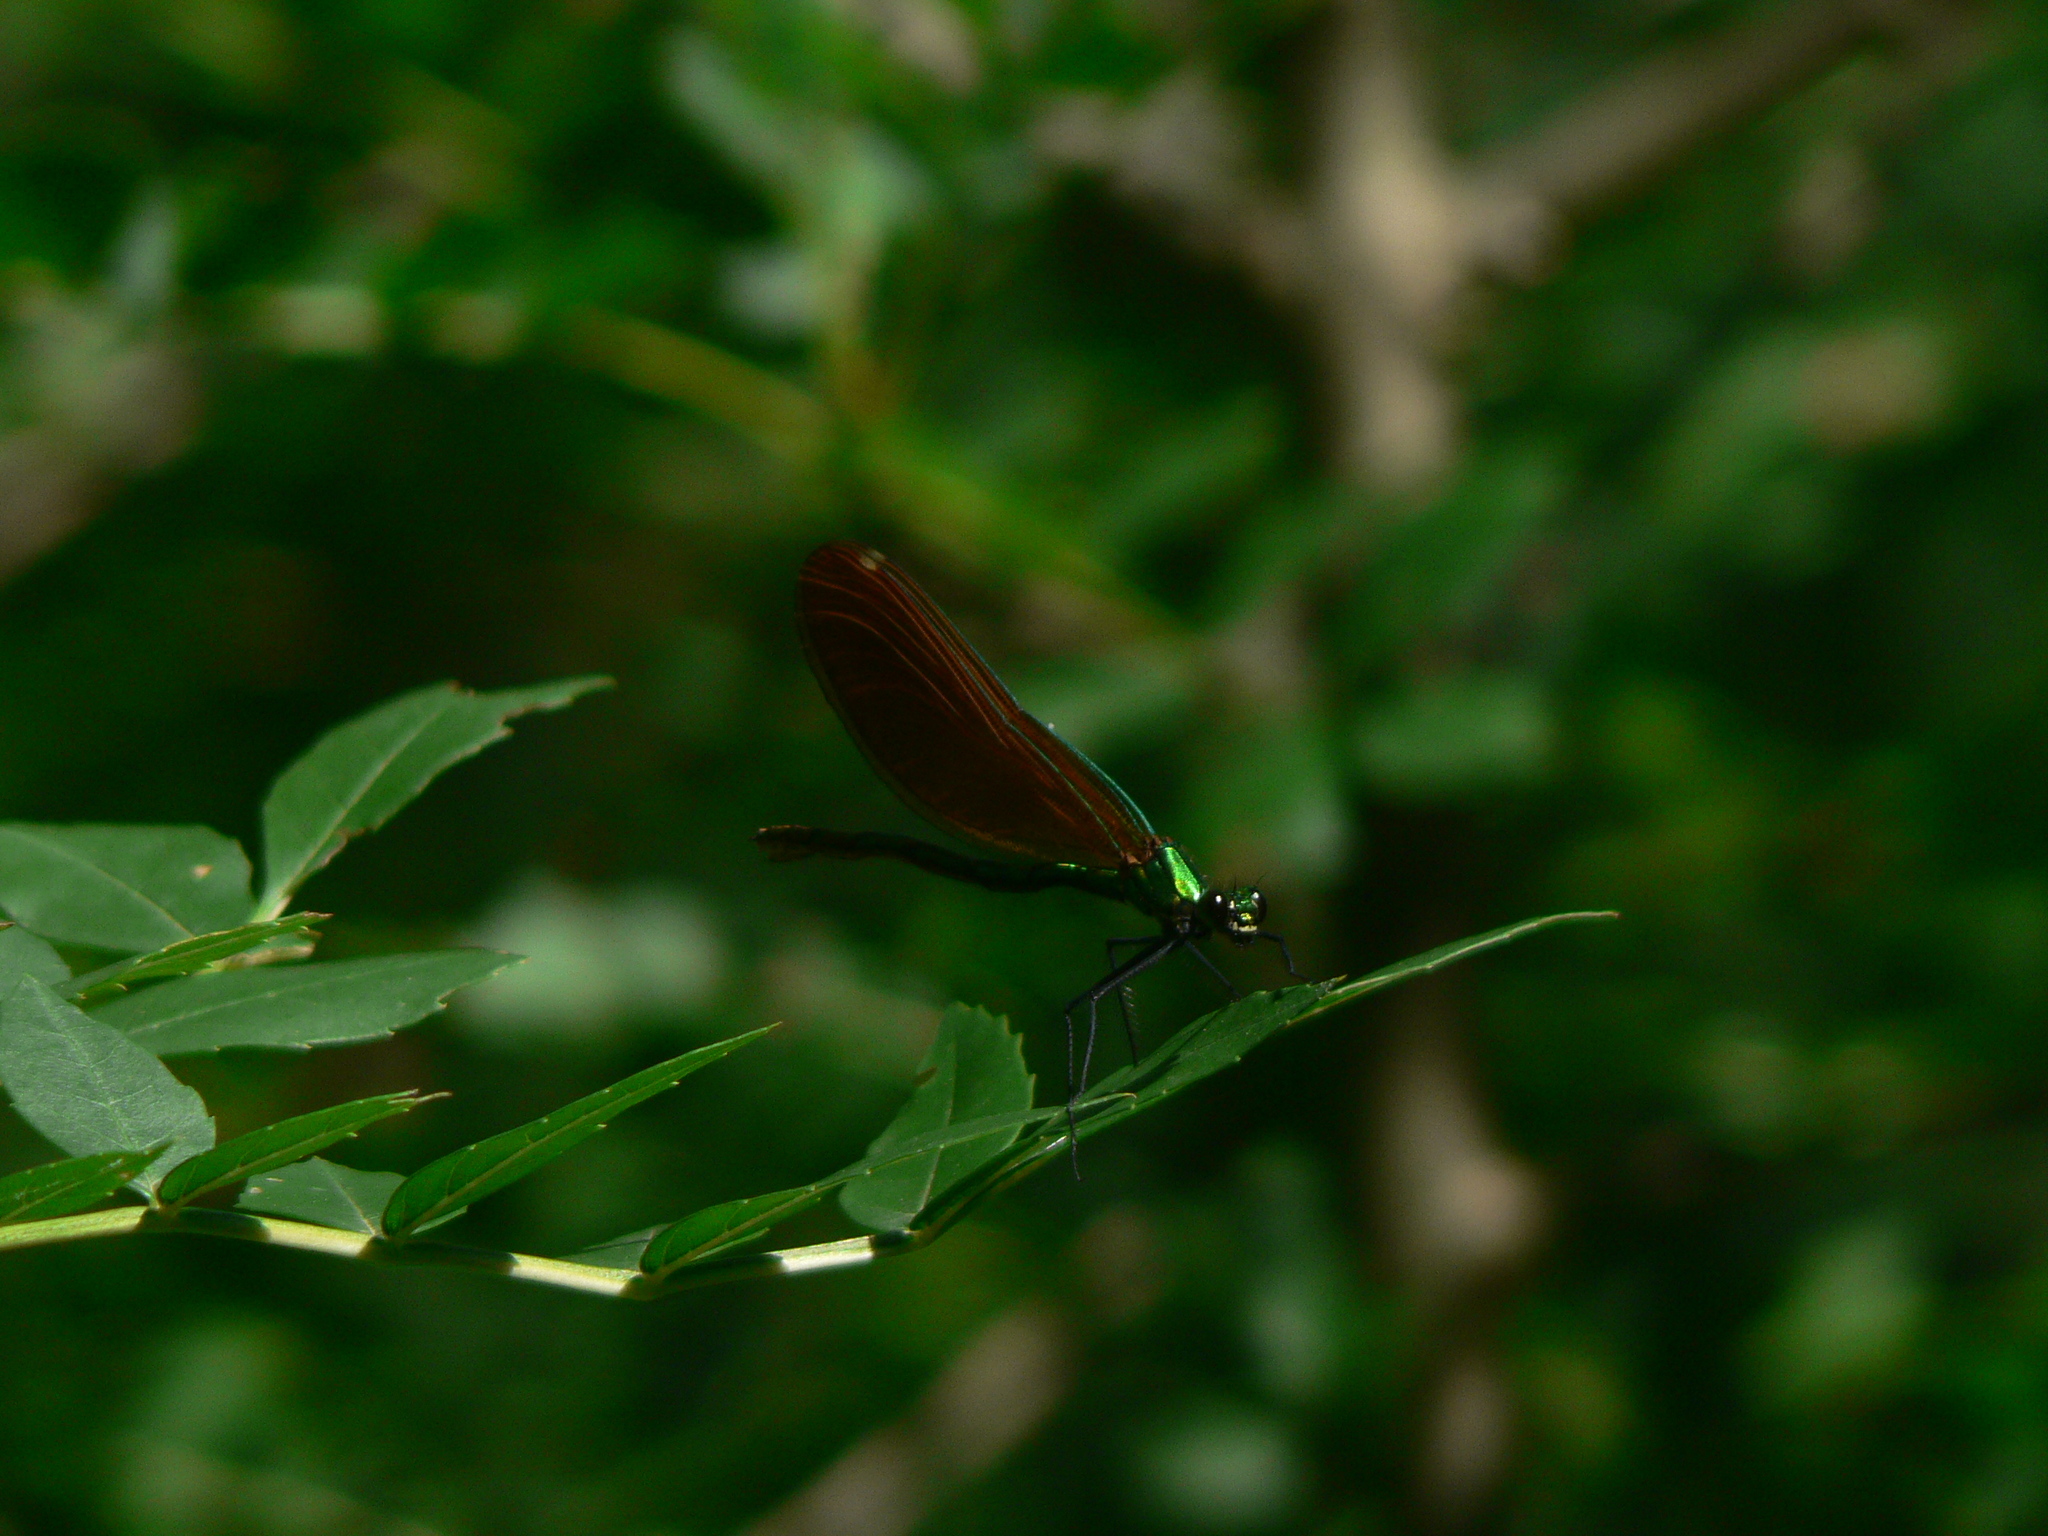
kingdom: Animalia
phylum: Arthropoda
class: Insecta
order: Odonata
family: Calopterygidae
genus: Calopteryx
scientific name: Calopteryx virgo
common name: Beautiful demoiselle
